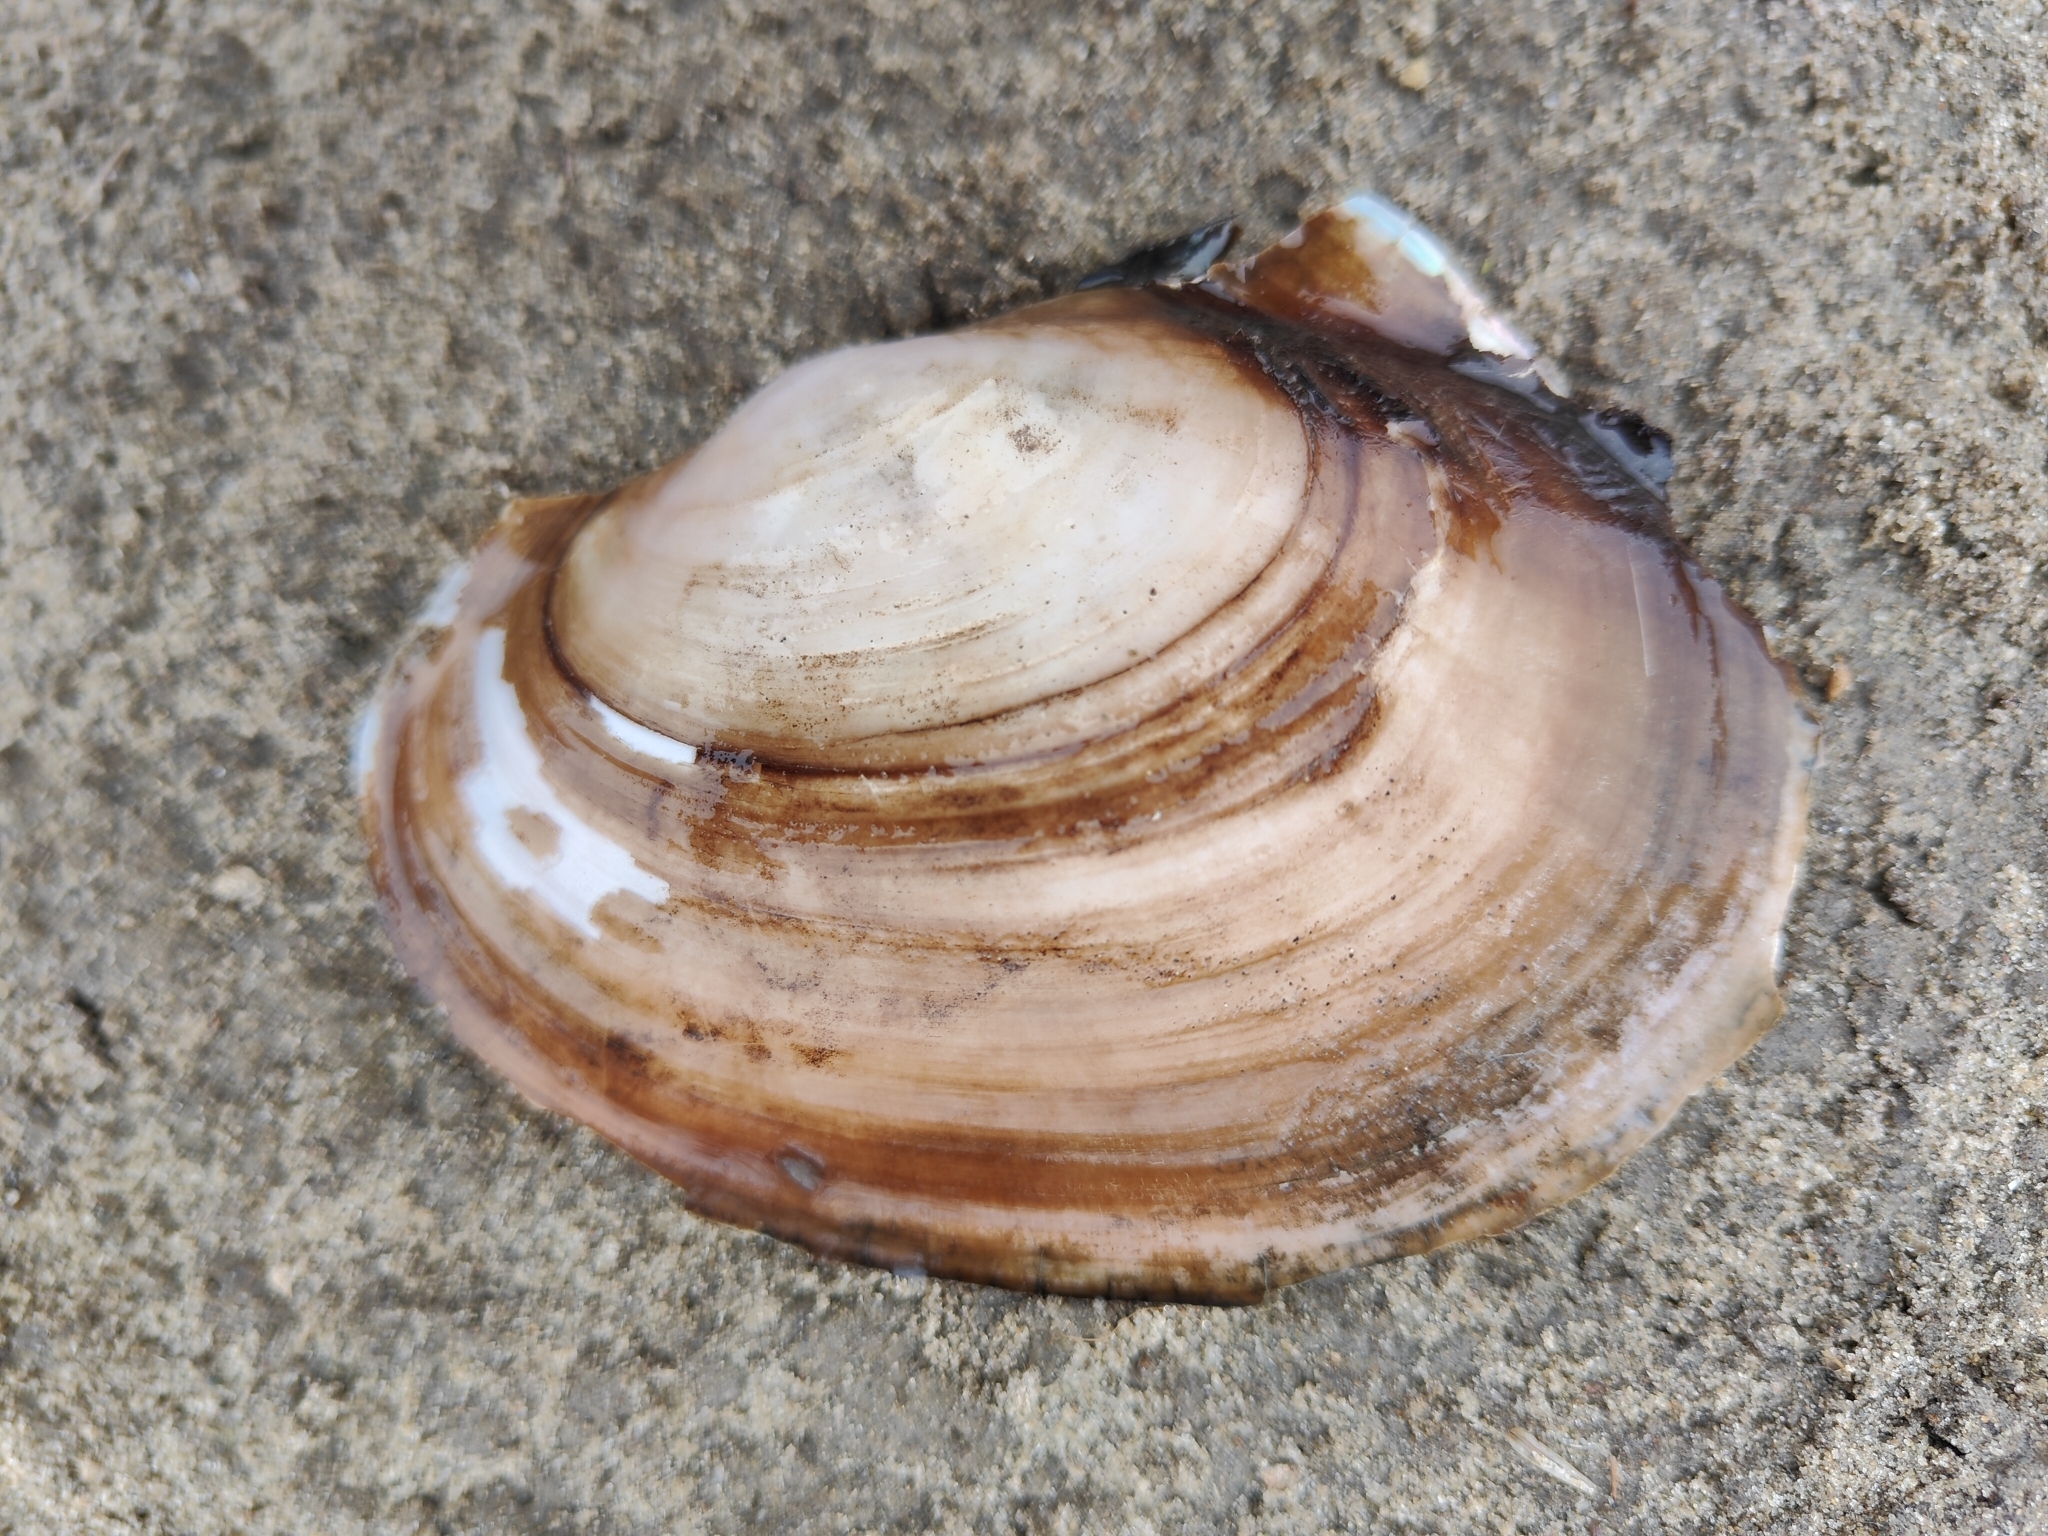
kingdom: Animalia
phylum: Mollusca
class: Bivalvia
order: Unionida
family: Unionidae
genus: Potamilus
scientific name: Potamilus ohiensis
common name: Pink papershell
